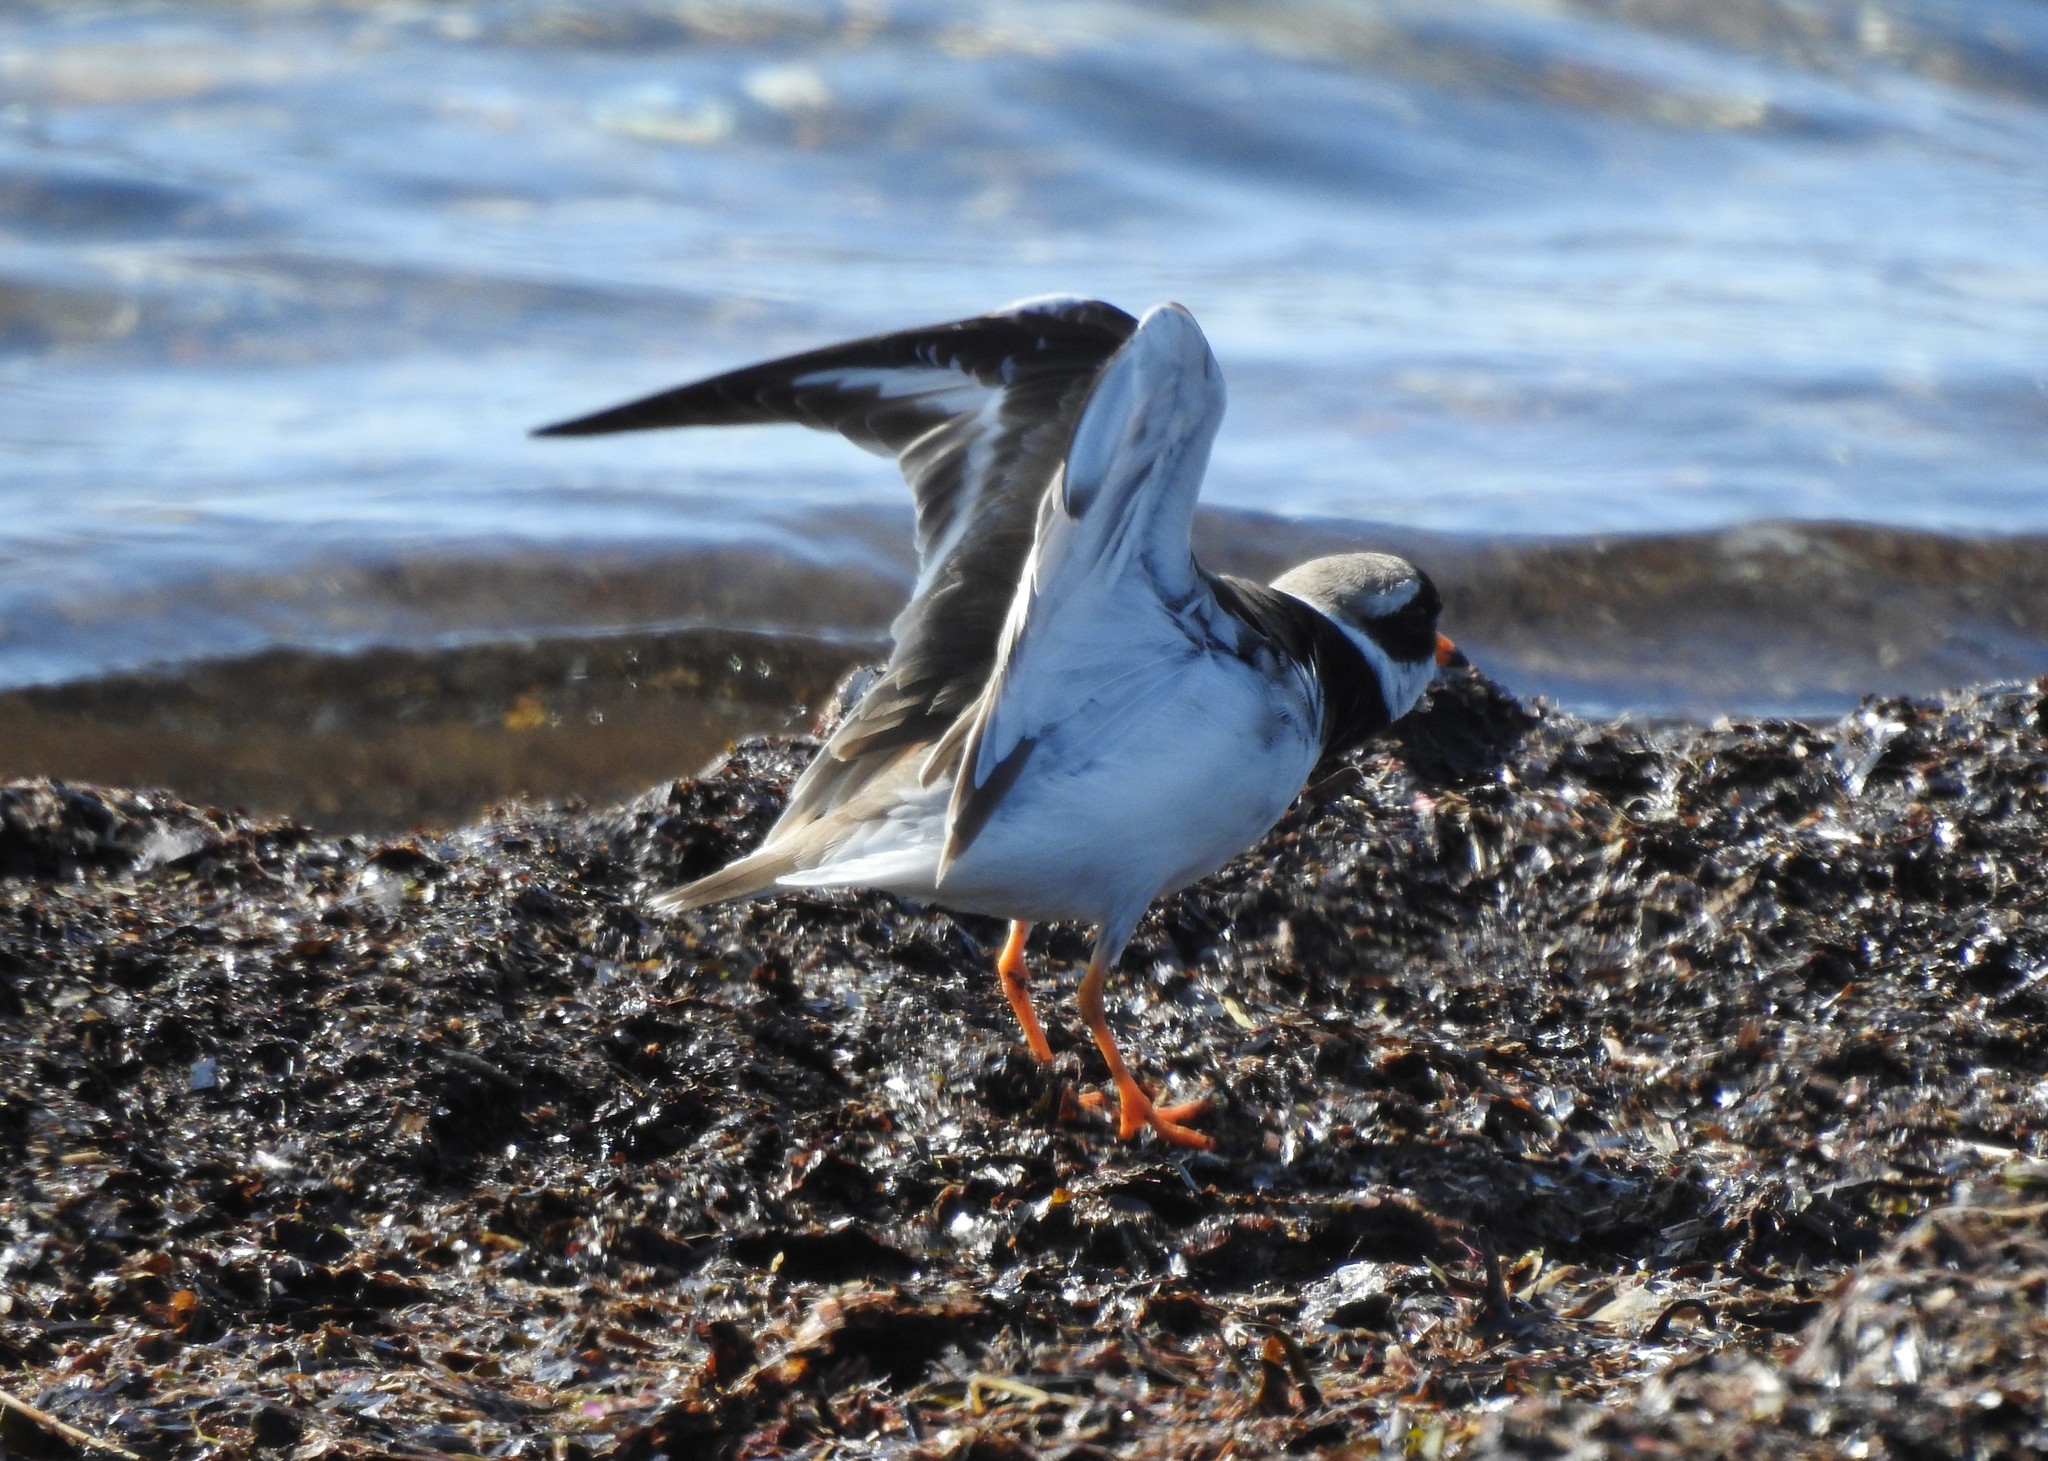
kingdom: Animalia
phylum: Chordata
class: Aves
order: Charadriiformes
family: Charadriidae
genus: Charadrius
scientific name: Charadrius hiaticula
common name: Common ringed plover
